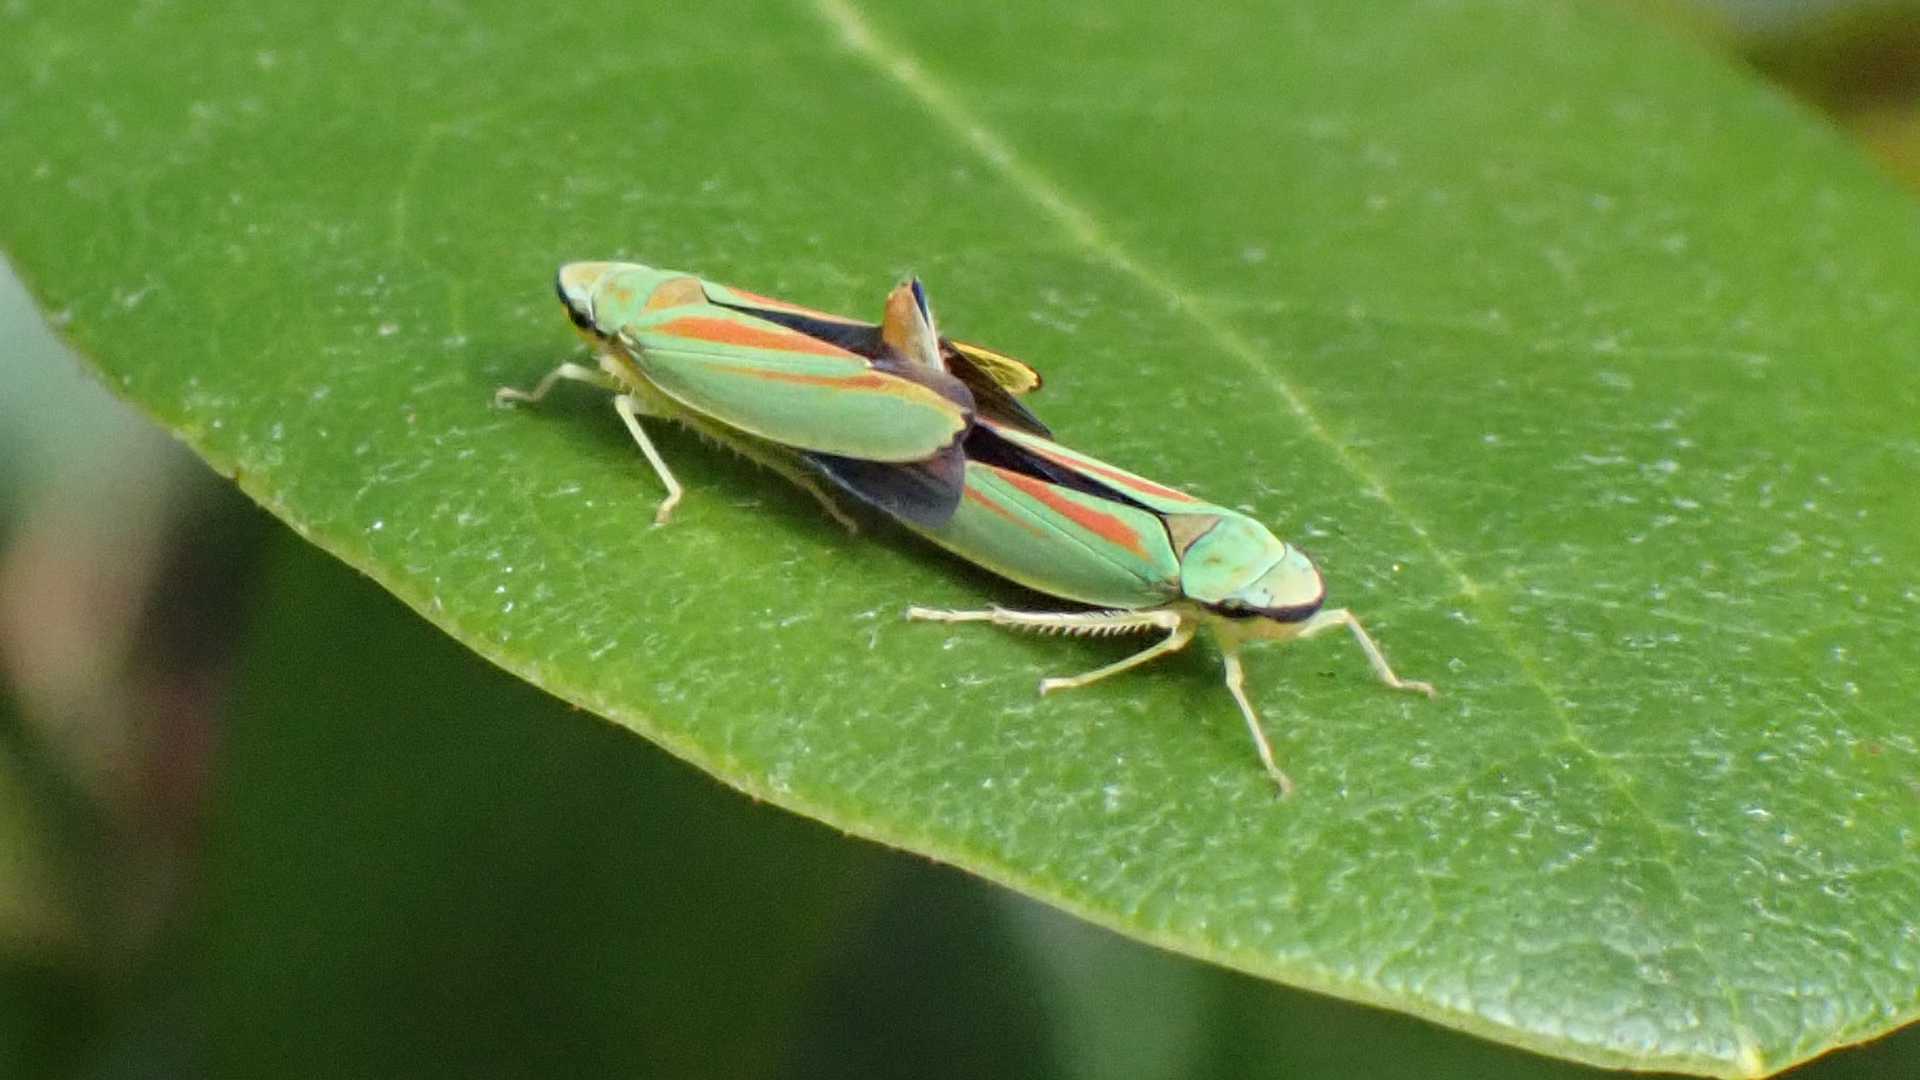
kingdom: Animalia
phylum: Arthropoda
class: Insecta
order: Hemiptera
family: Cicadellidae
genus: Graphocephala
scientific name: Graphocephala fennahi
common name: Rhododendron leafhopper
